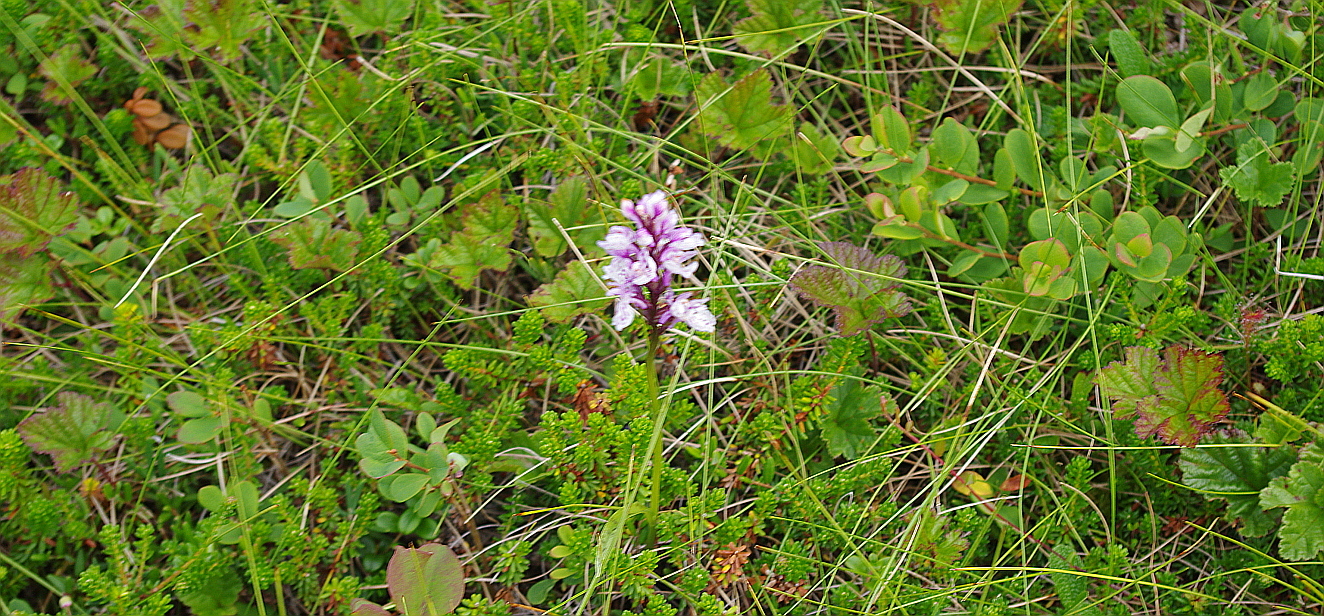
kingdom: Plantae
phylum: Tracheophyta
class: Liliopsida
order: Asparagales
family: Orchidaceae
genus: Dactylorhiza
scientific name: Dactylorhiza maculata
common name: Heath spotted-orchid
